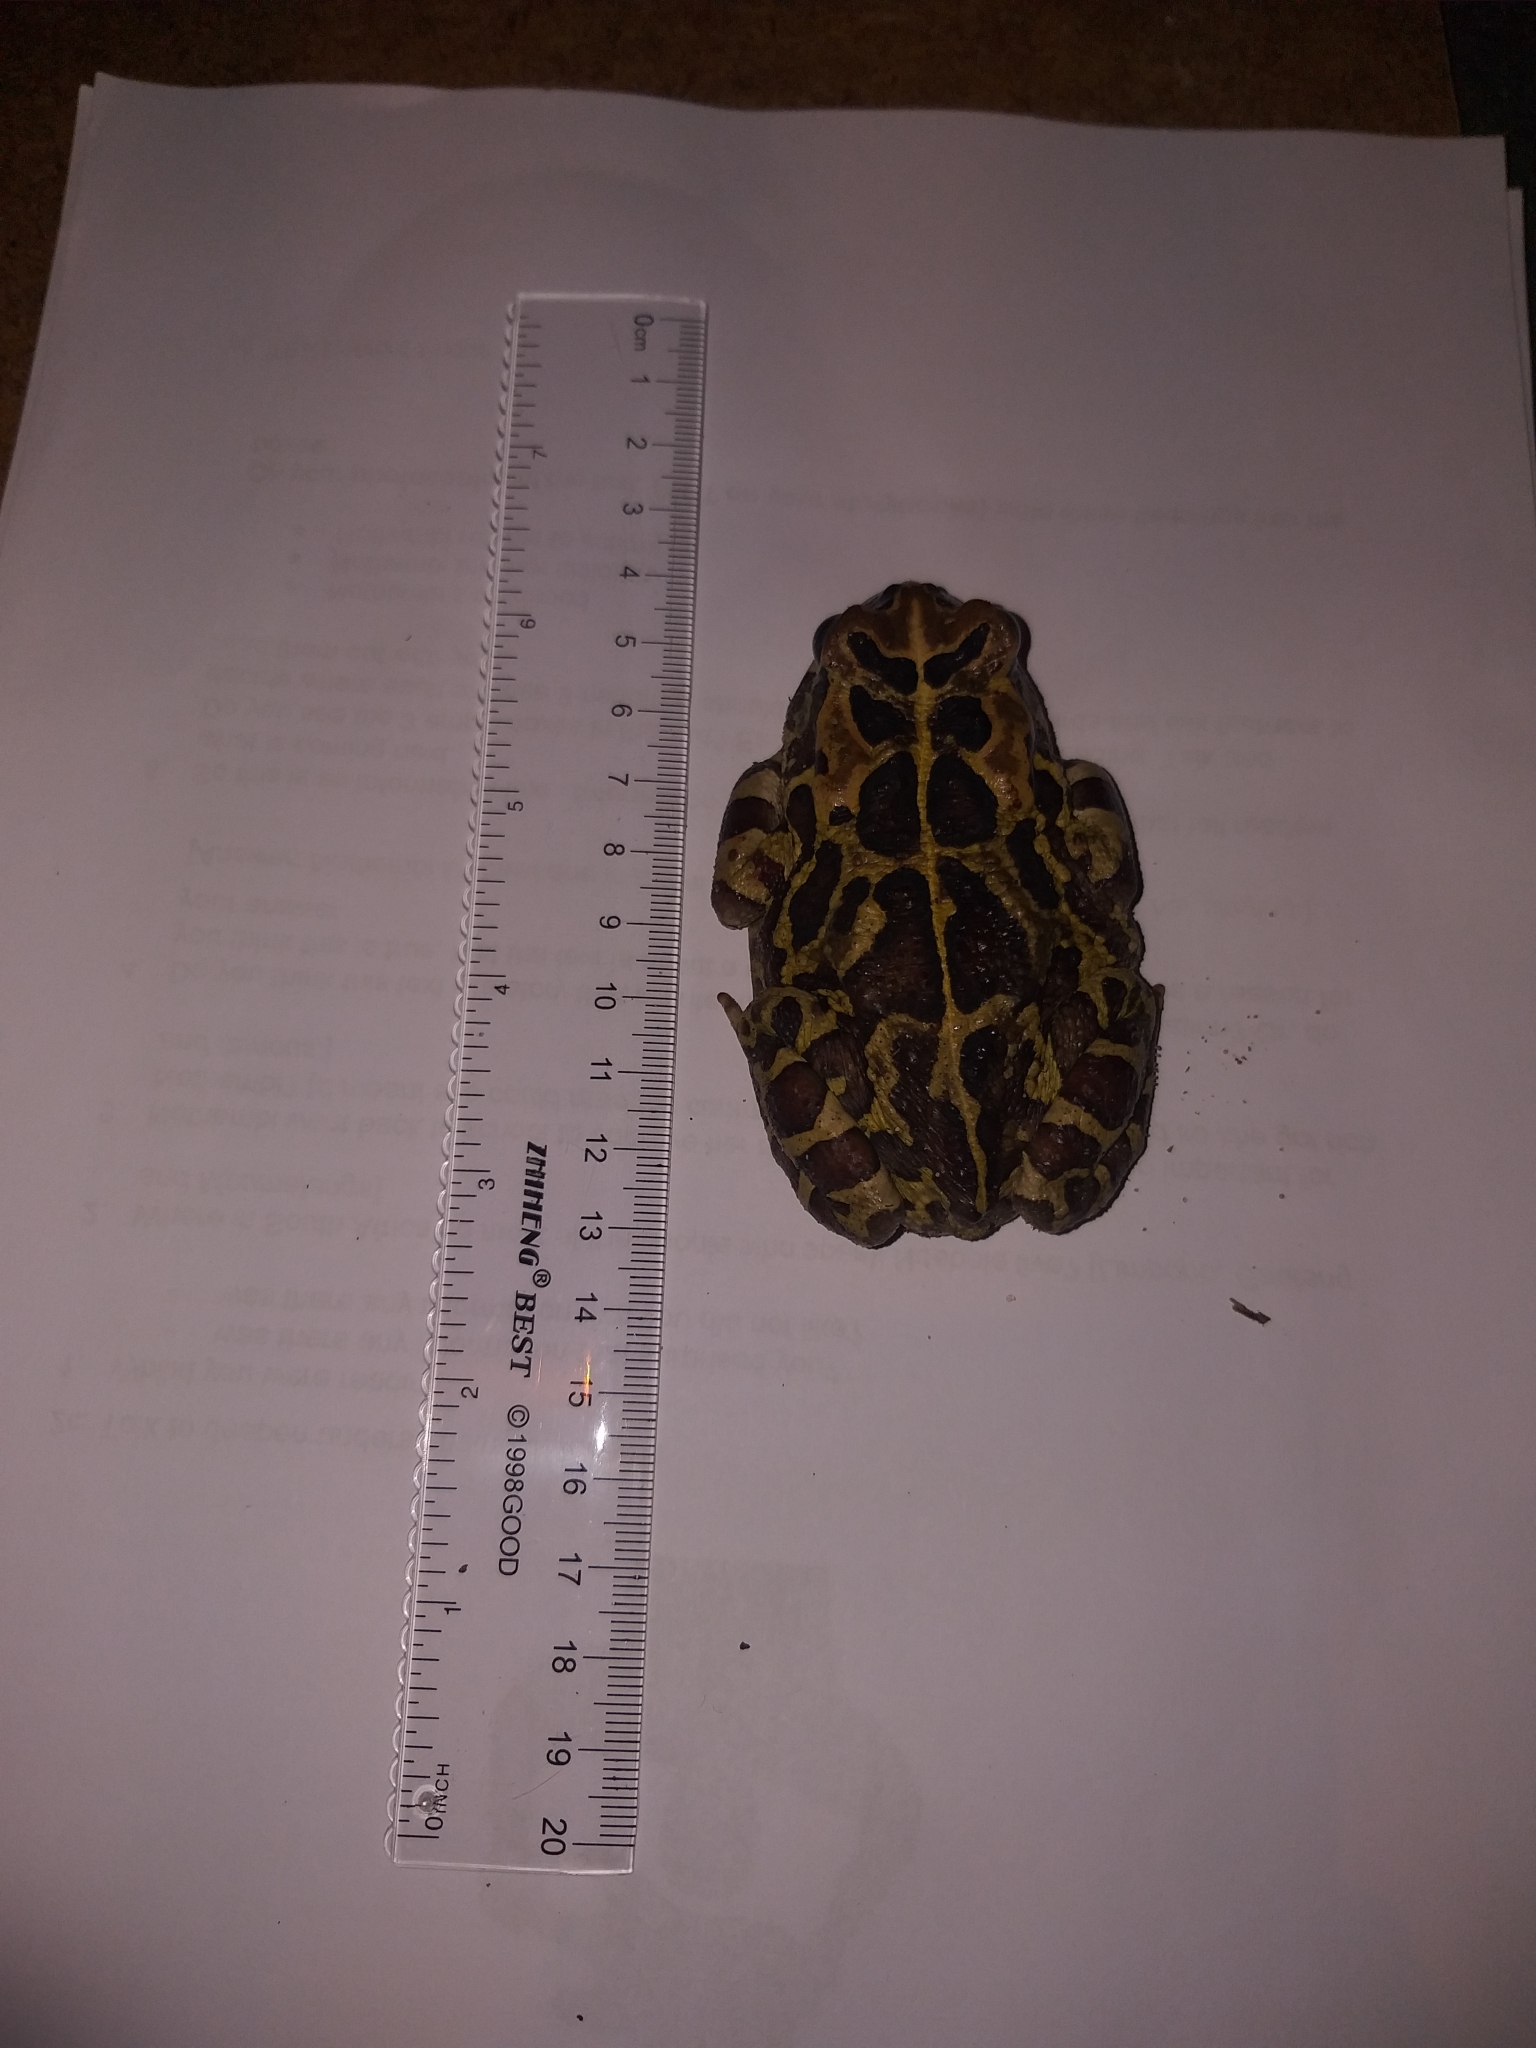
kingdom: Animalia
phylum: Chordata
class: Amphibia
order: Anura
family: Bufonidae
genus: Sclerophrys
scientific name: Sclerophrys pantherina
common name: Panther toad
